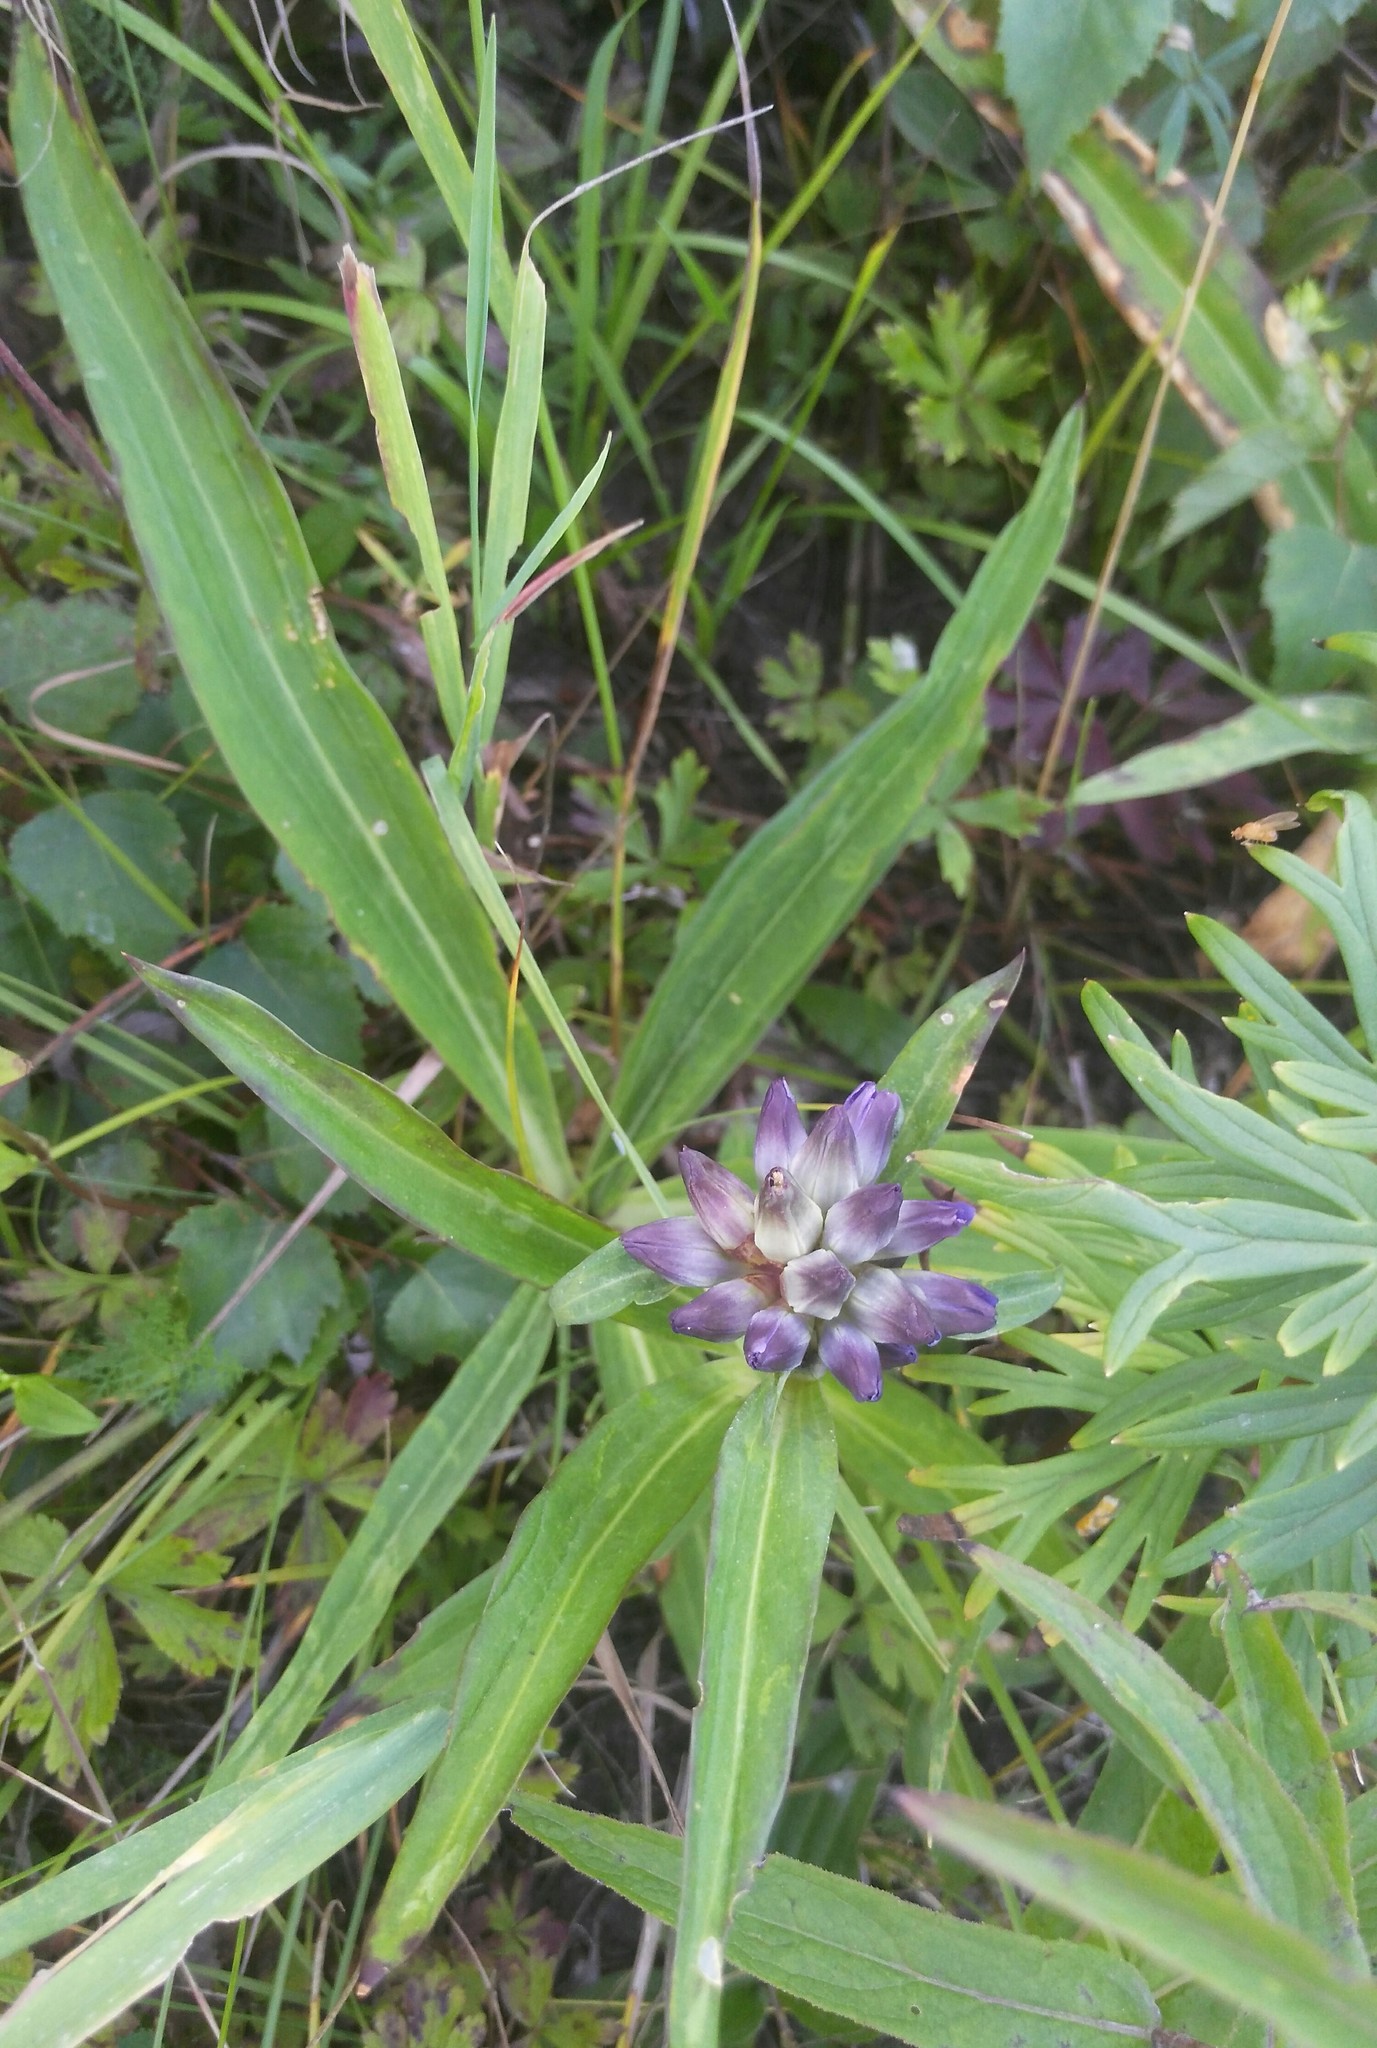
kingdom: Plantae
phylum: Tracheophyta
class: Magnoliopsida
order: Gentianales
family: Gentianaceae
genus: Gentiana
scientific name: Gentiana macrophylla
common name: Large-leaf gentian
